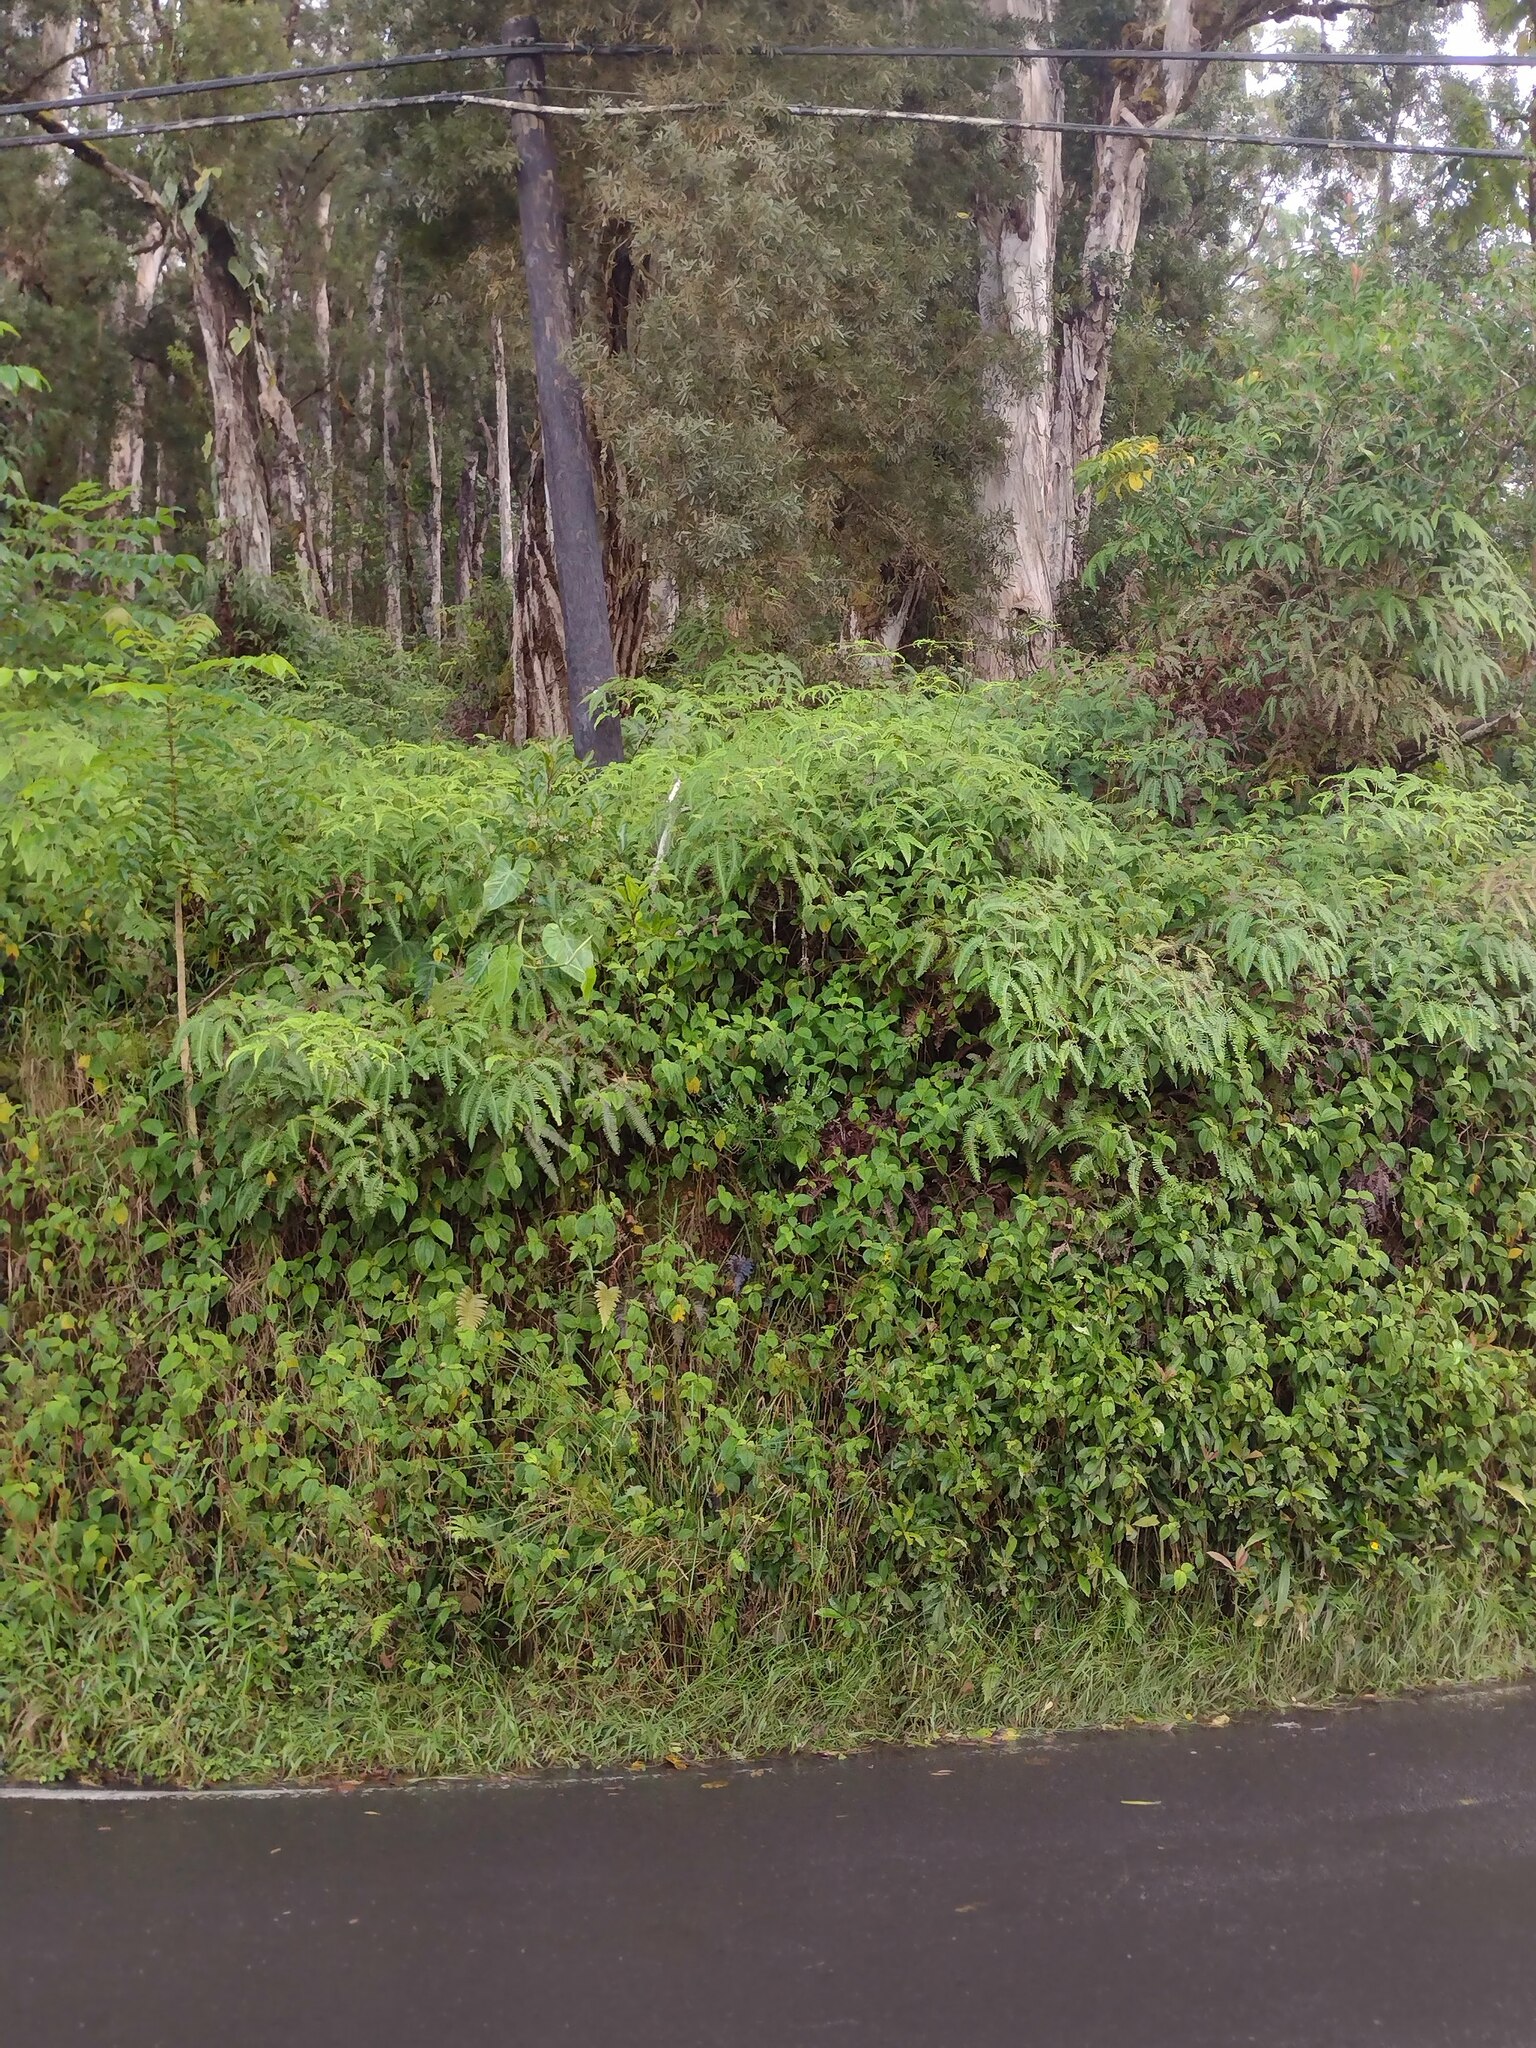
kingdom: Plantae
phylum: Tracheophyta
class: Polypodiopsida
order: Gleicheniales
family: Gleicheniaceae
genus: Dicranopteris
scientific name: Dicranopteris linearis
